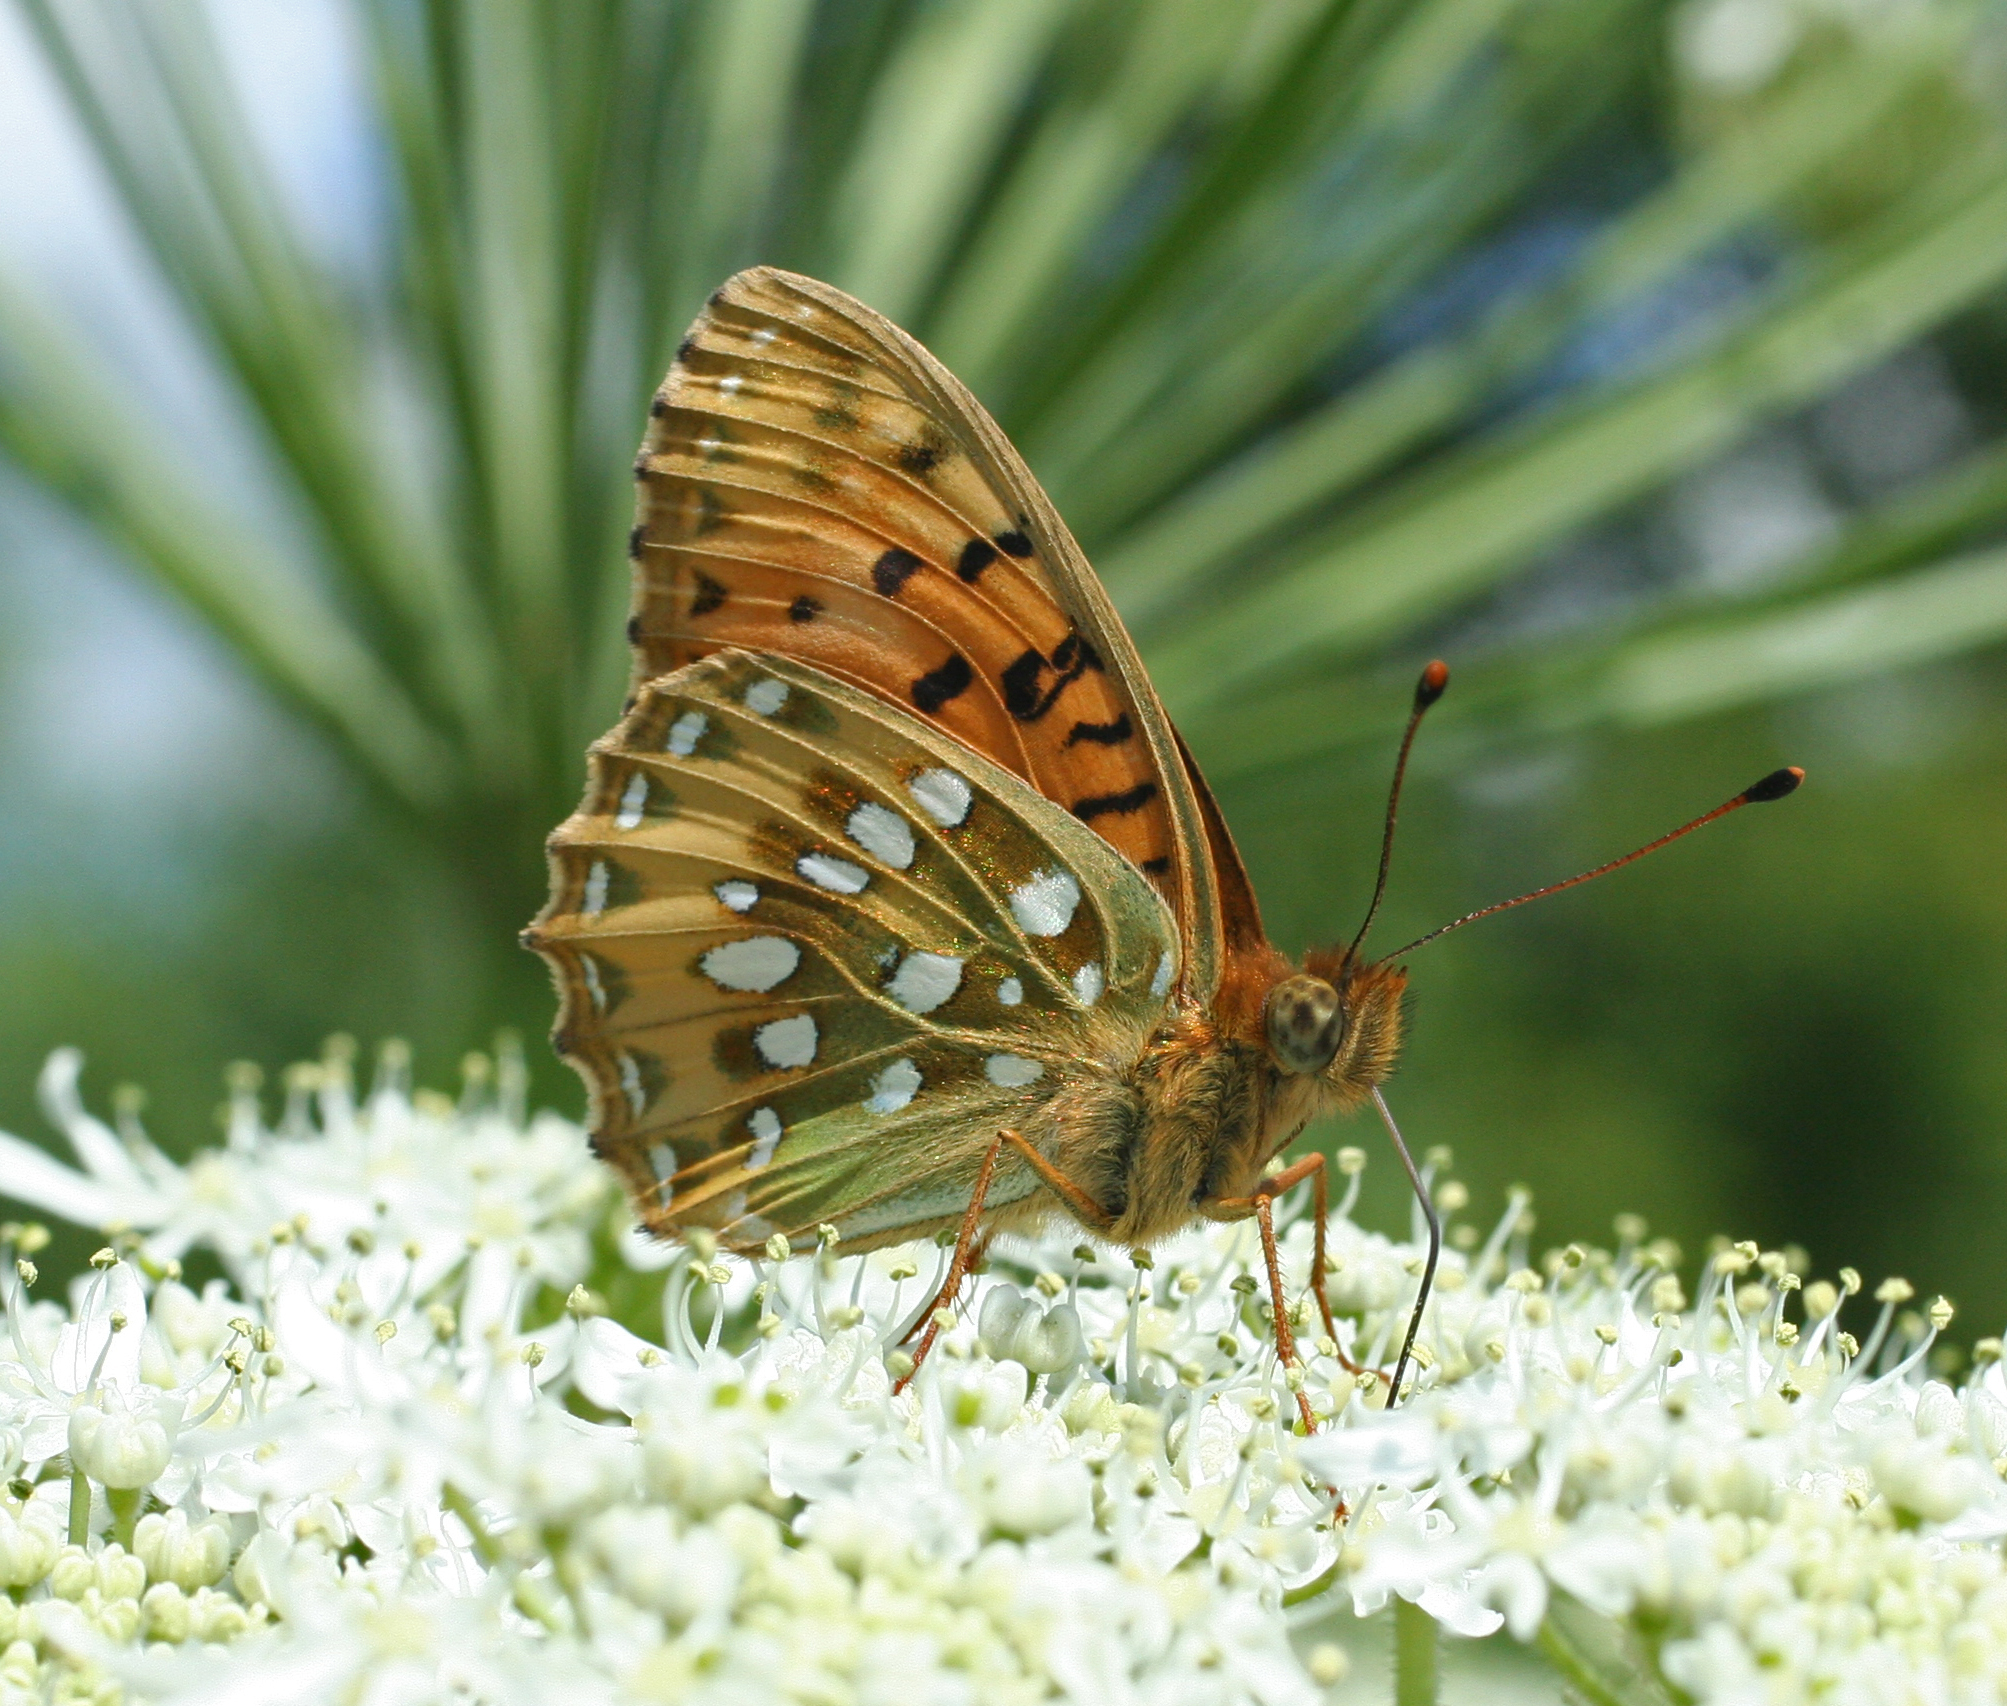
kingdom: Animalia
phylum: Arthropoda
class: Insecta
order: Lepidoptera
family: Nymphalidae
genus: Speyeria
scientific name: Speyeria aglaja
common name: Dark green fritillary
